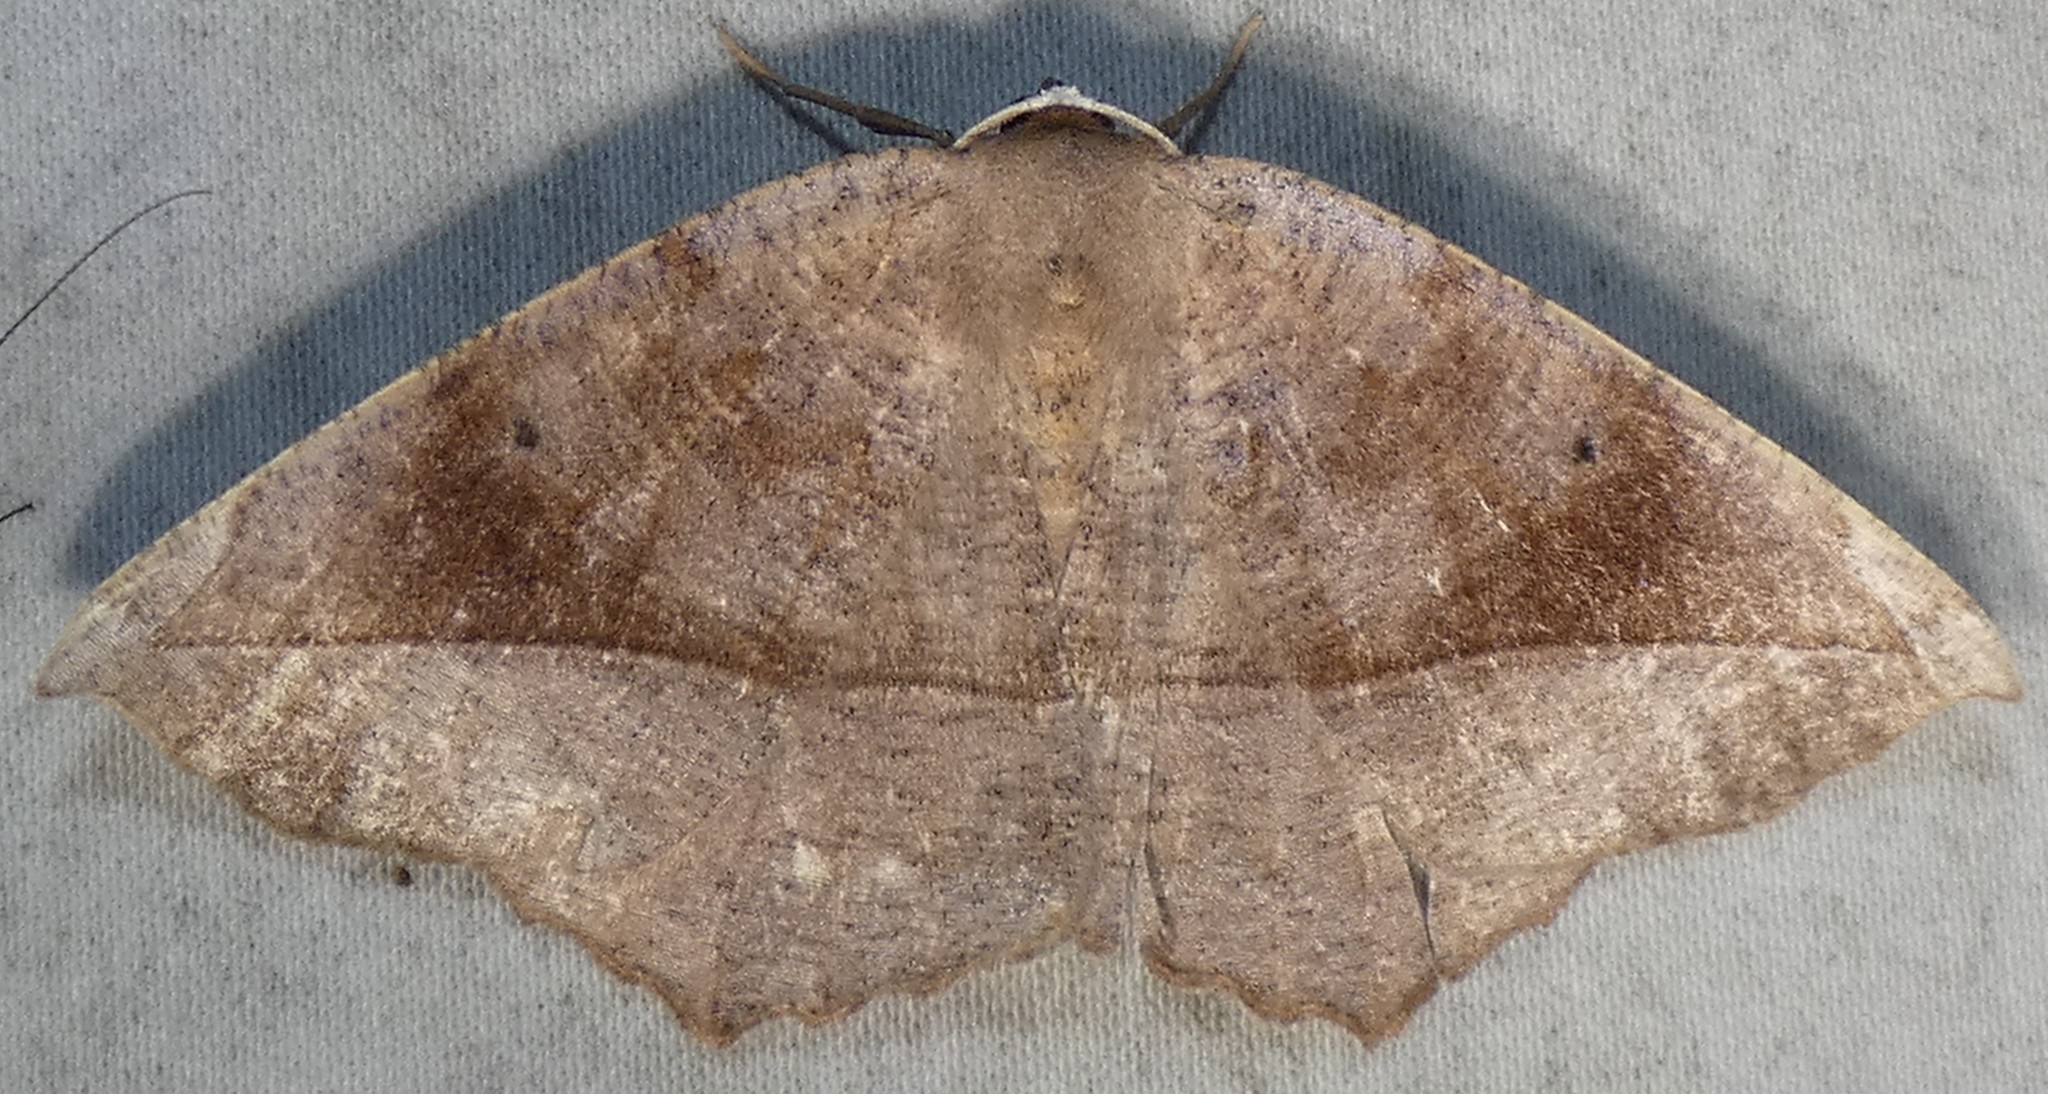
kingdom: Animalia
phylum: Arthropoda
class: Insecta
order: Lepidoptera
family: Geometridae
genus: Eutrapela
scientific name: Eutrapela clemataria
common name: Curved-toothed geometer
